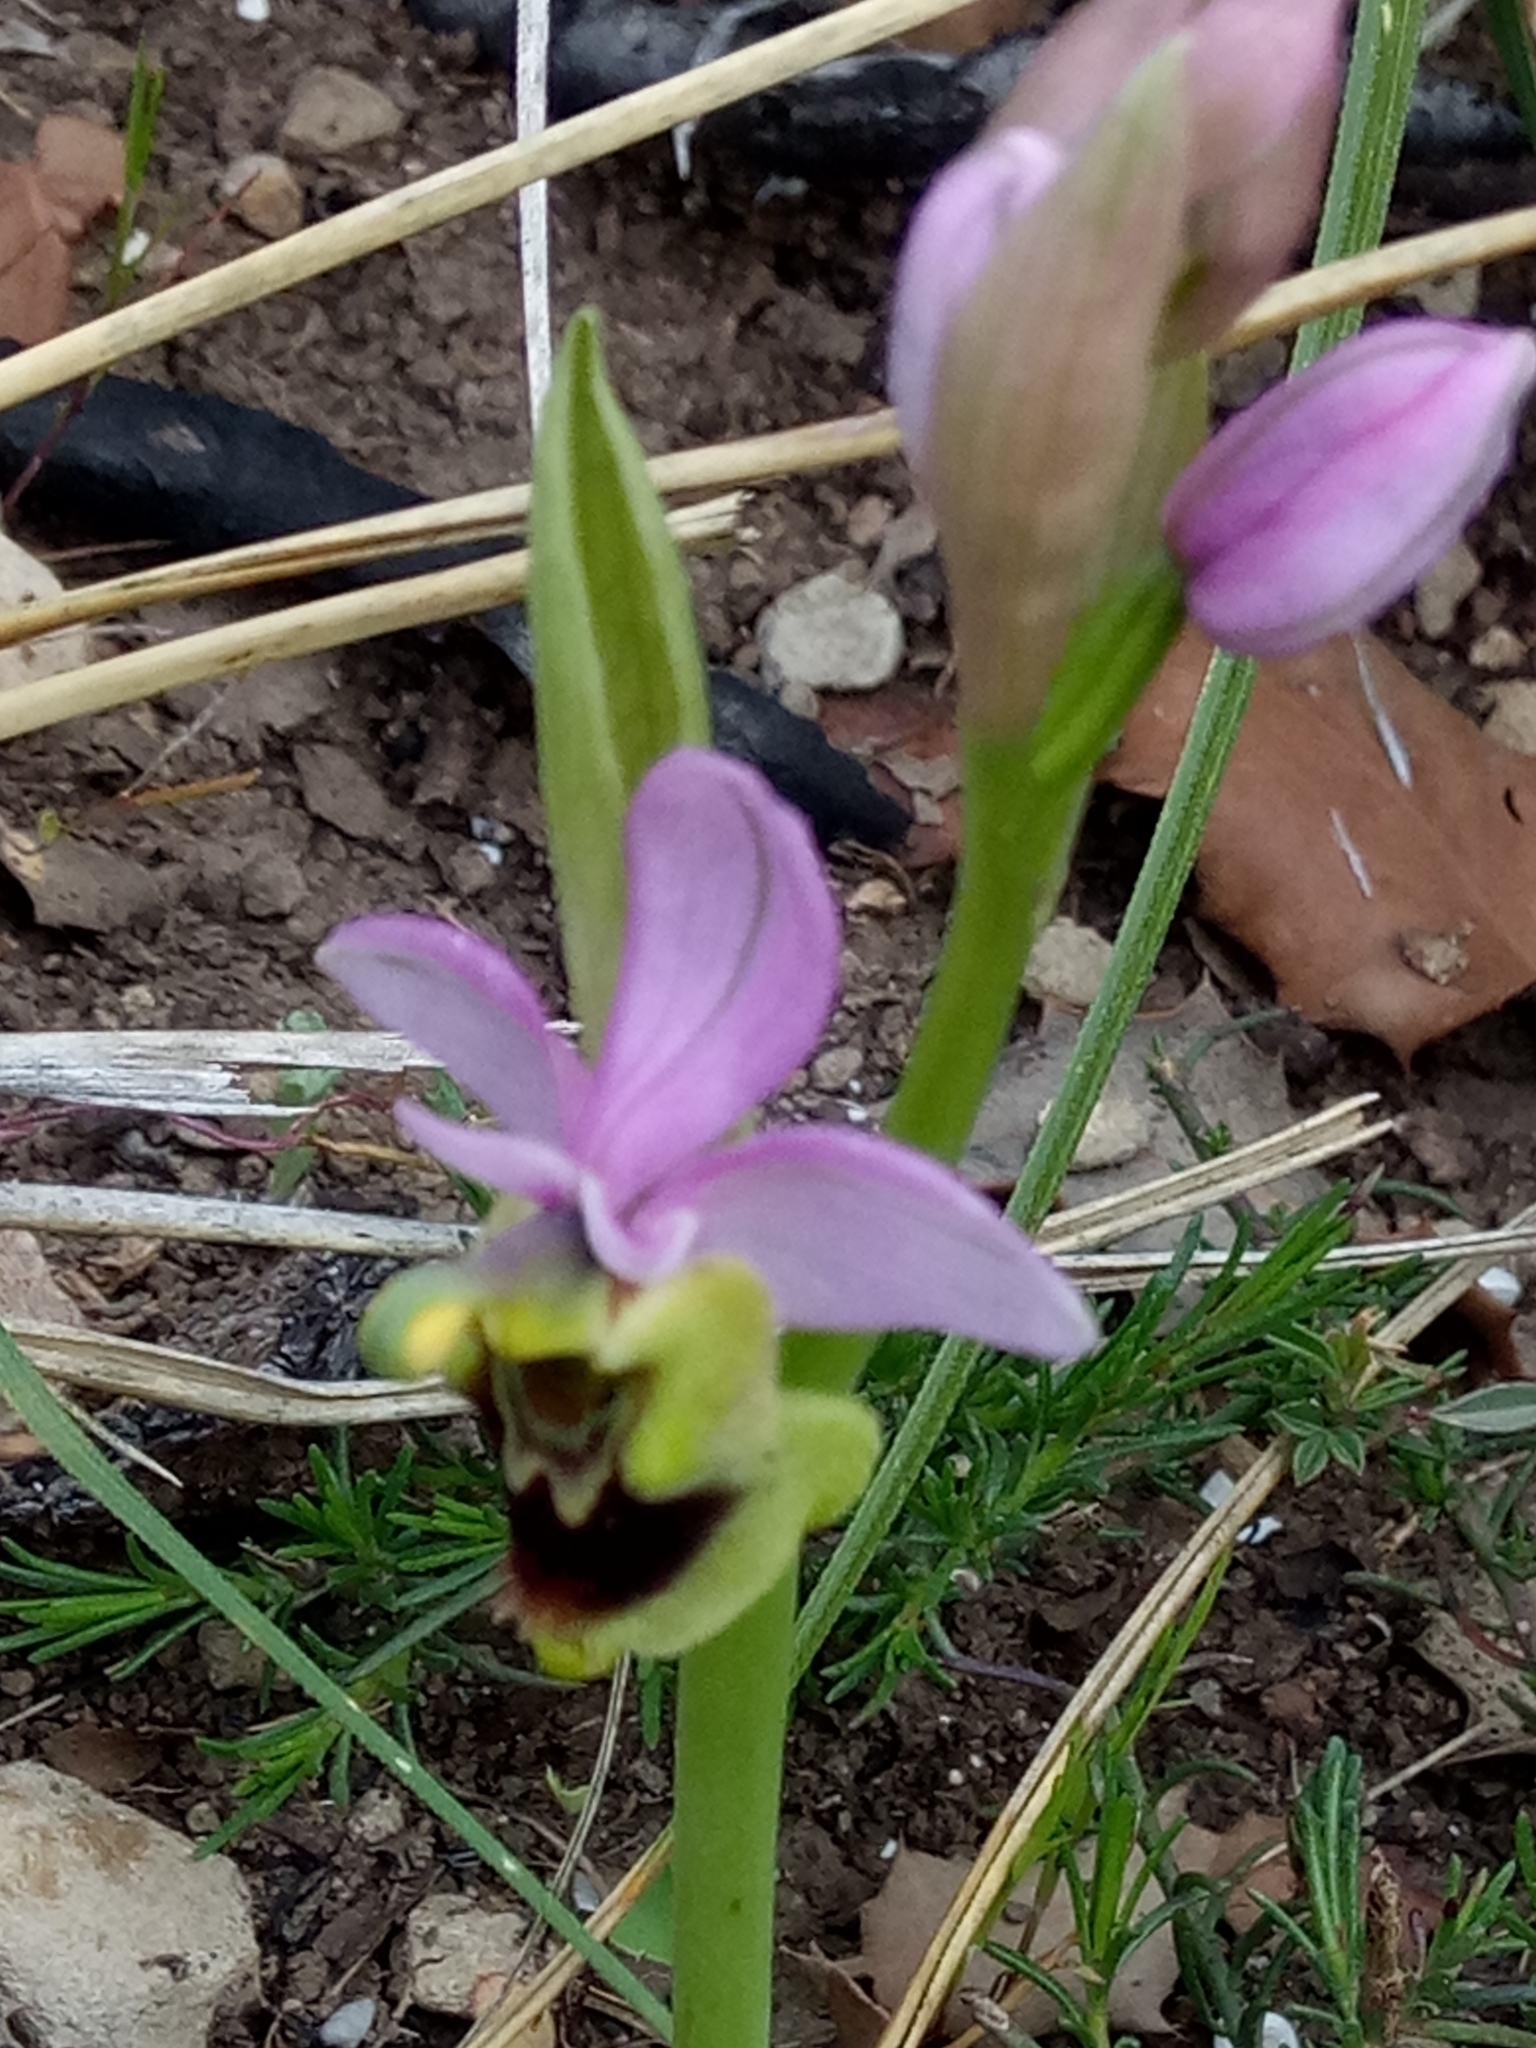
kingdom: Plantae
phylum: Tracheophyta
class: Liliopsida
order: Asparagales
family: Orchidaceae
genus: Ophrys
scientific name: Ophrys tenthredinifera
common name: Sawfly orchid
